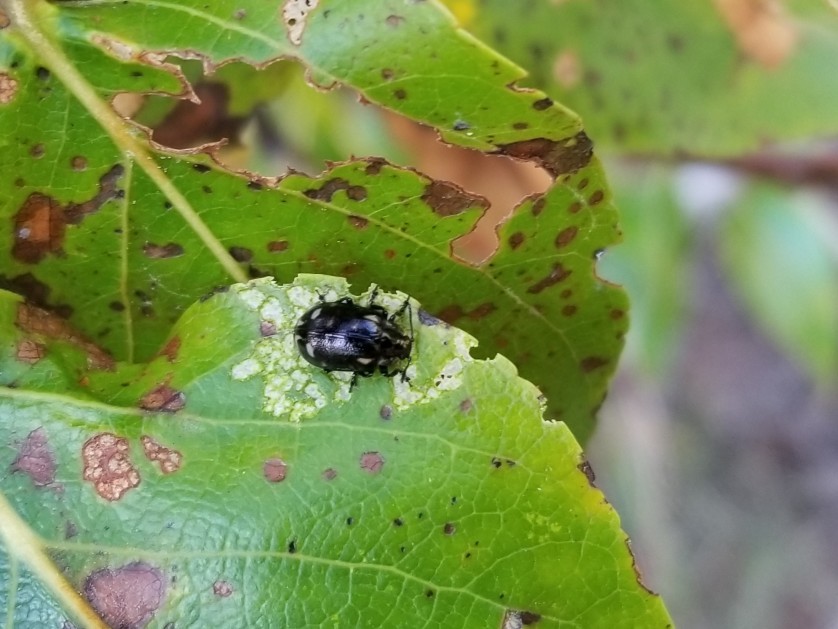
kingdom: Animalia
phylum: Arthropoda
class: Insecta
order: Coleoptera
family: Chrysomelidae
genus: Chrysomela
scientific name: Chrysomela
